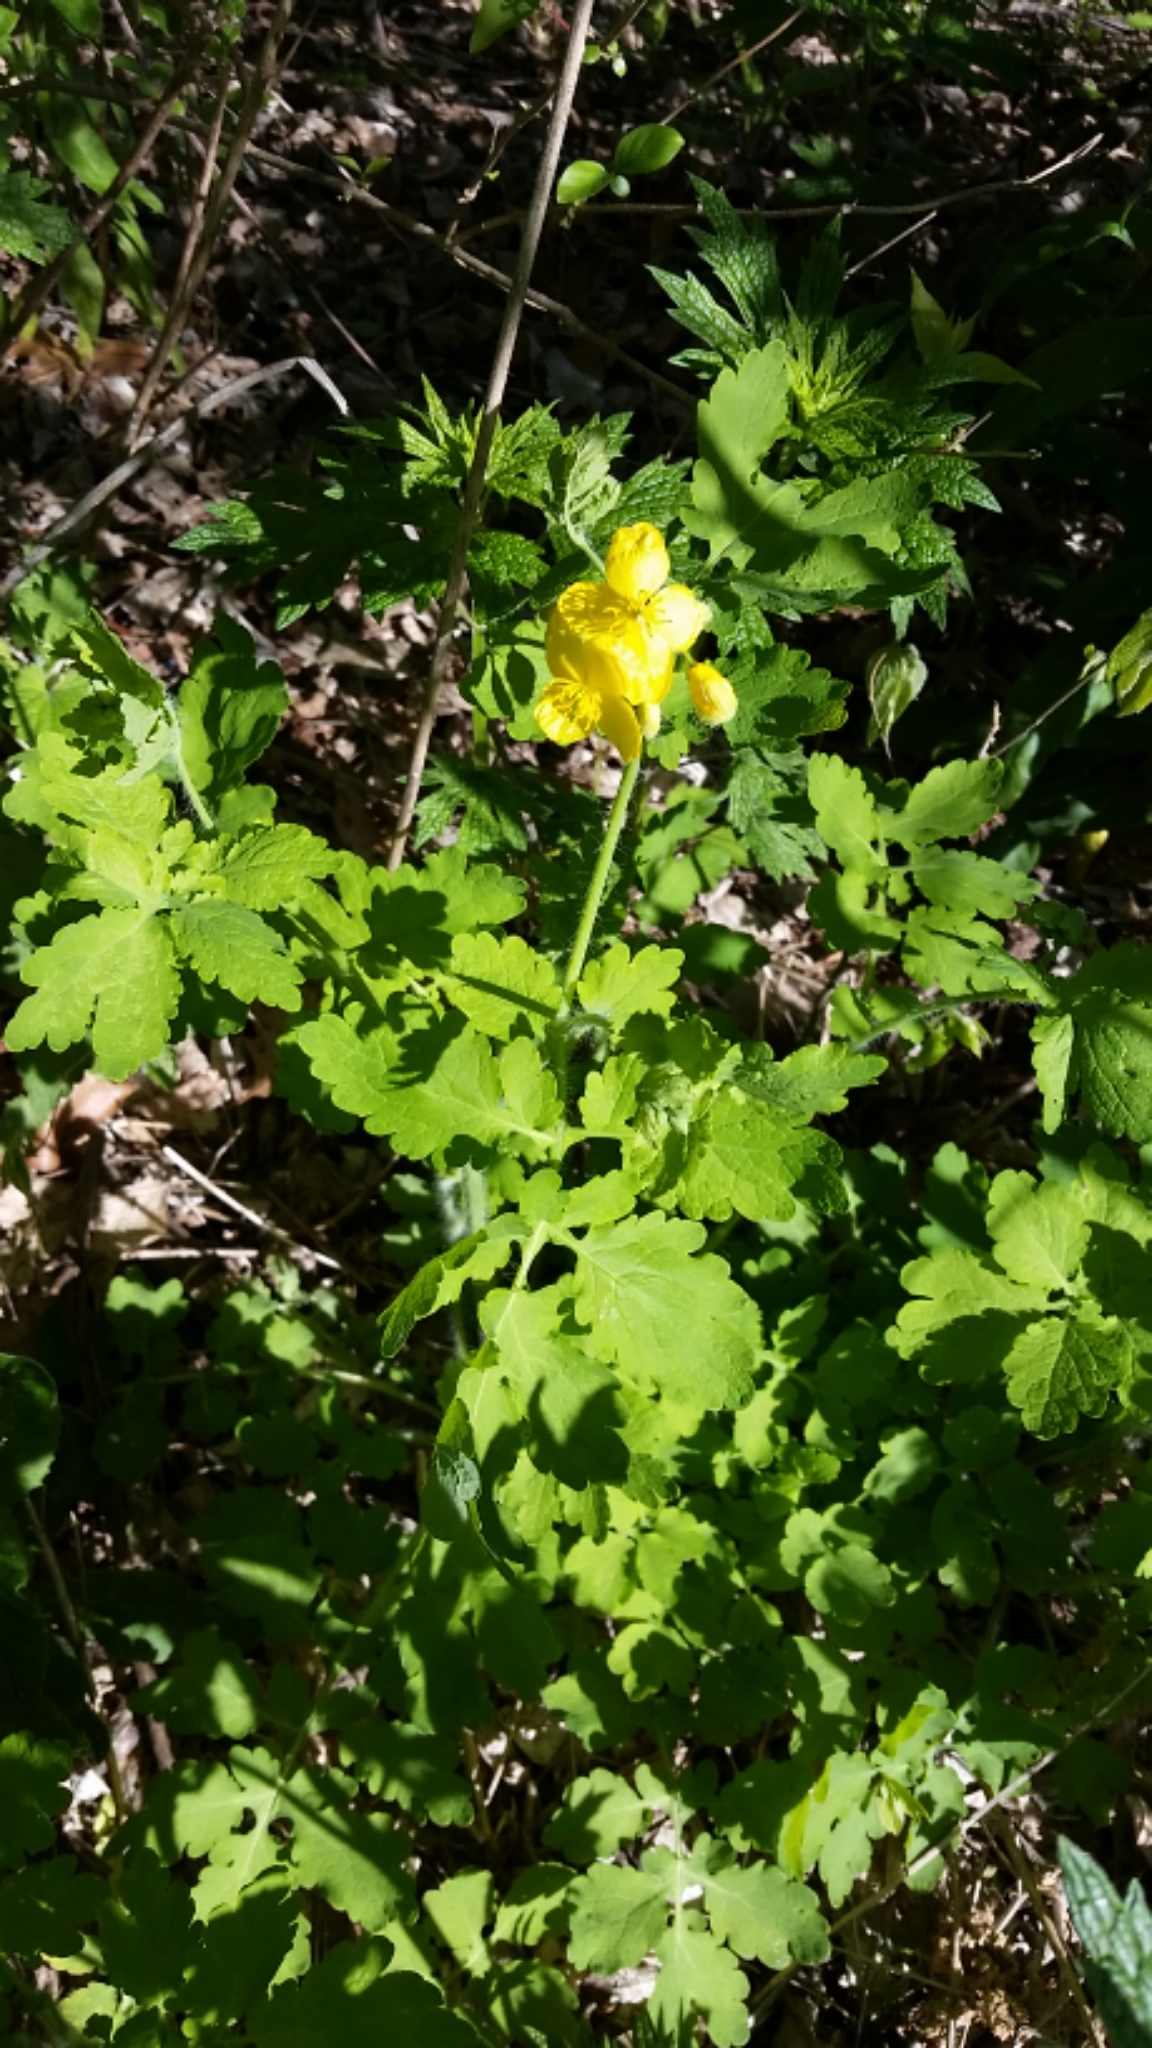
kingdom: Plantae
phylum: Tracheophyta
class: Magnoliopsida
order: Ranunculales
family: Papaveraceae
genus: Chelidonium
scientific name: Chelidonium majus
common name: Greater celandine
